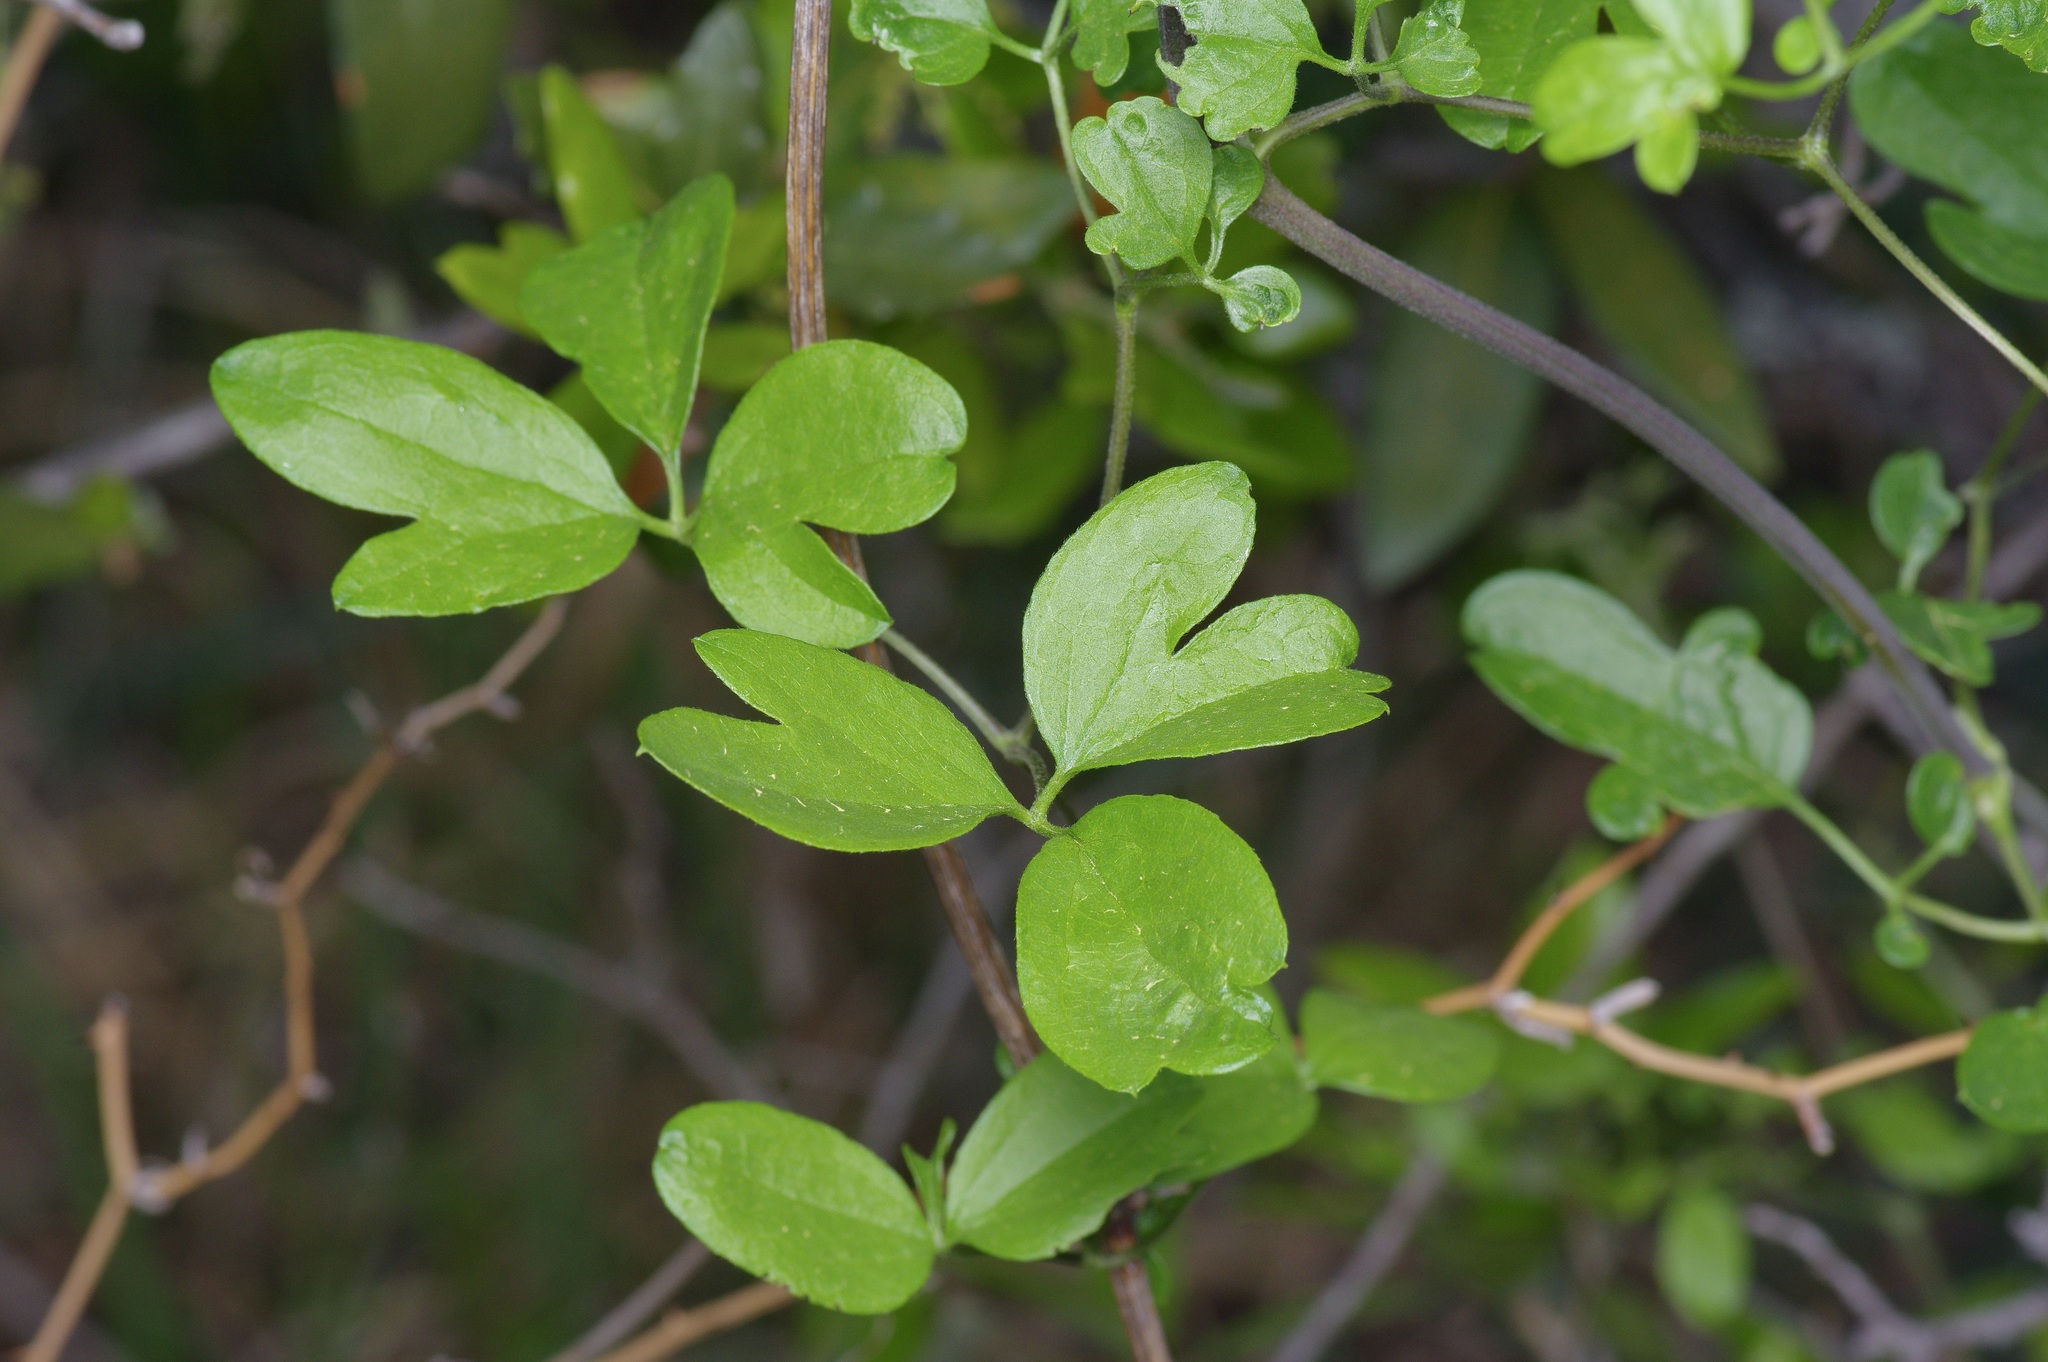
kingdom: Plantae
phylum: Tracheophyta
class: Magnoliopsida
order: Ranunculales
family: Ranunculaceae
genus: Clematis
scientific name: Clematis pitcheri
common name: Bellflower clematis
